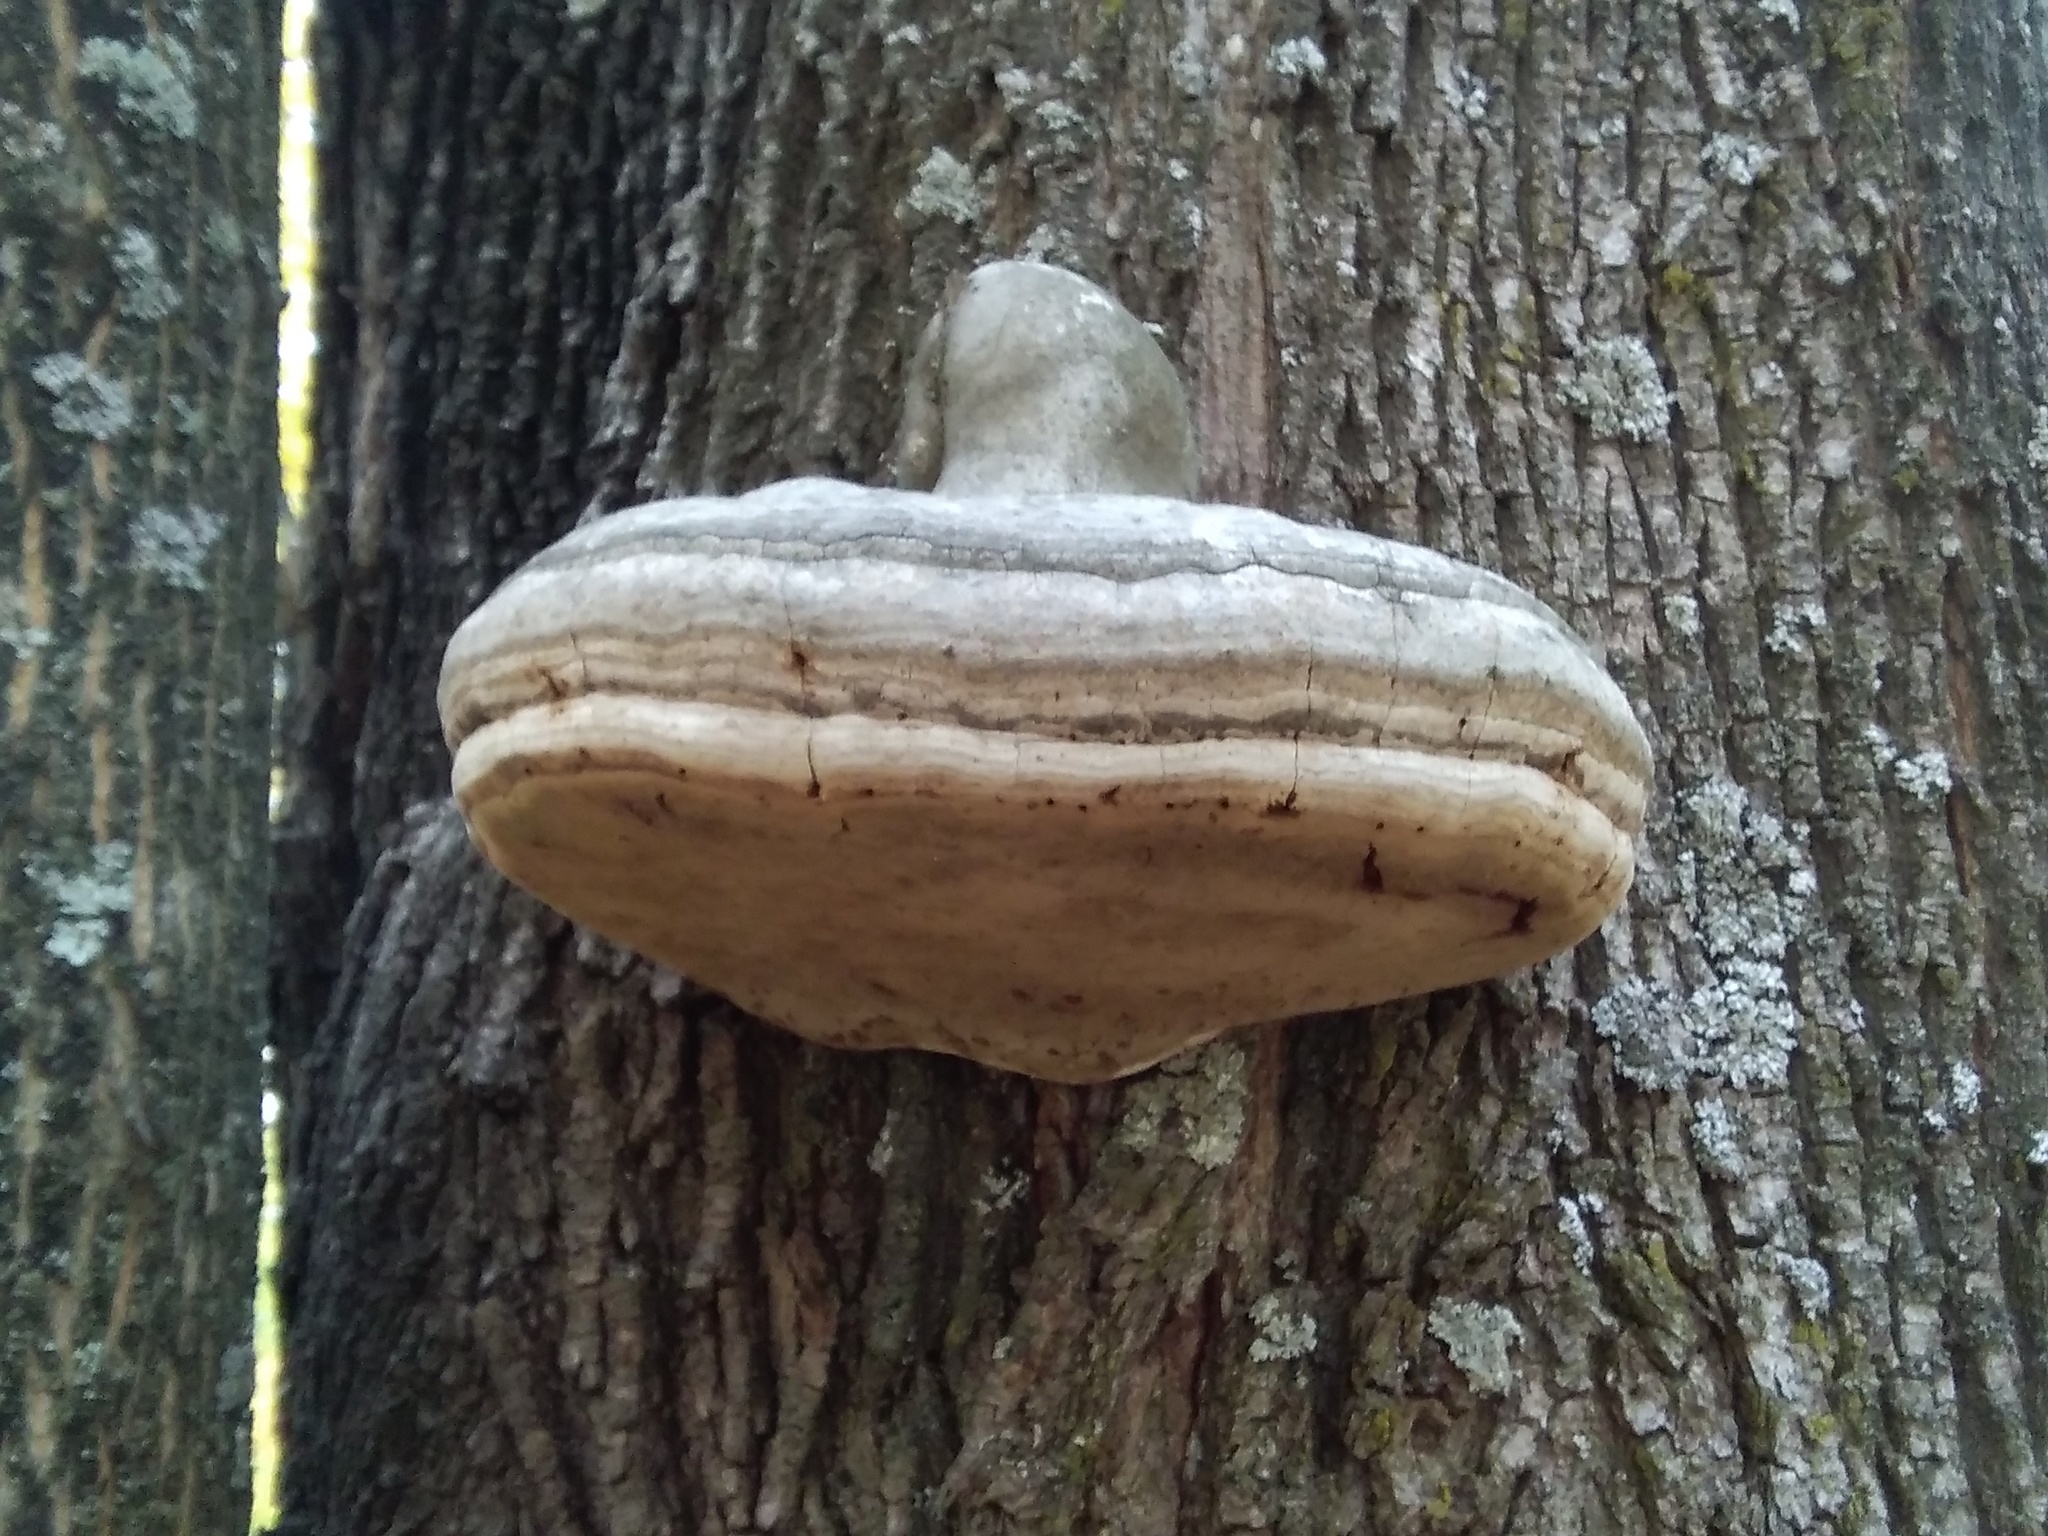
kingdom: Fungi
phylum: Basidiomycota
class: Agaricomycetes
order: Polyporales
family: Polyporaceae
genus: Fomes
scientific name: Fomes fomentarius
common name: Hoof fungus
